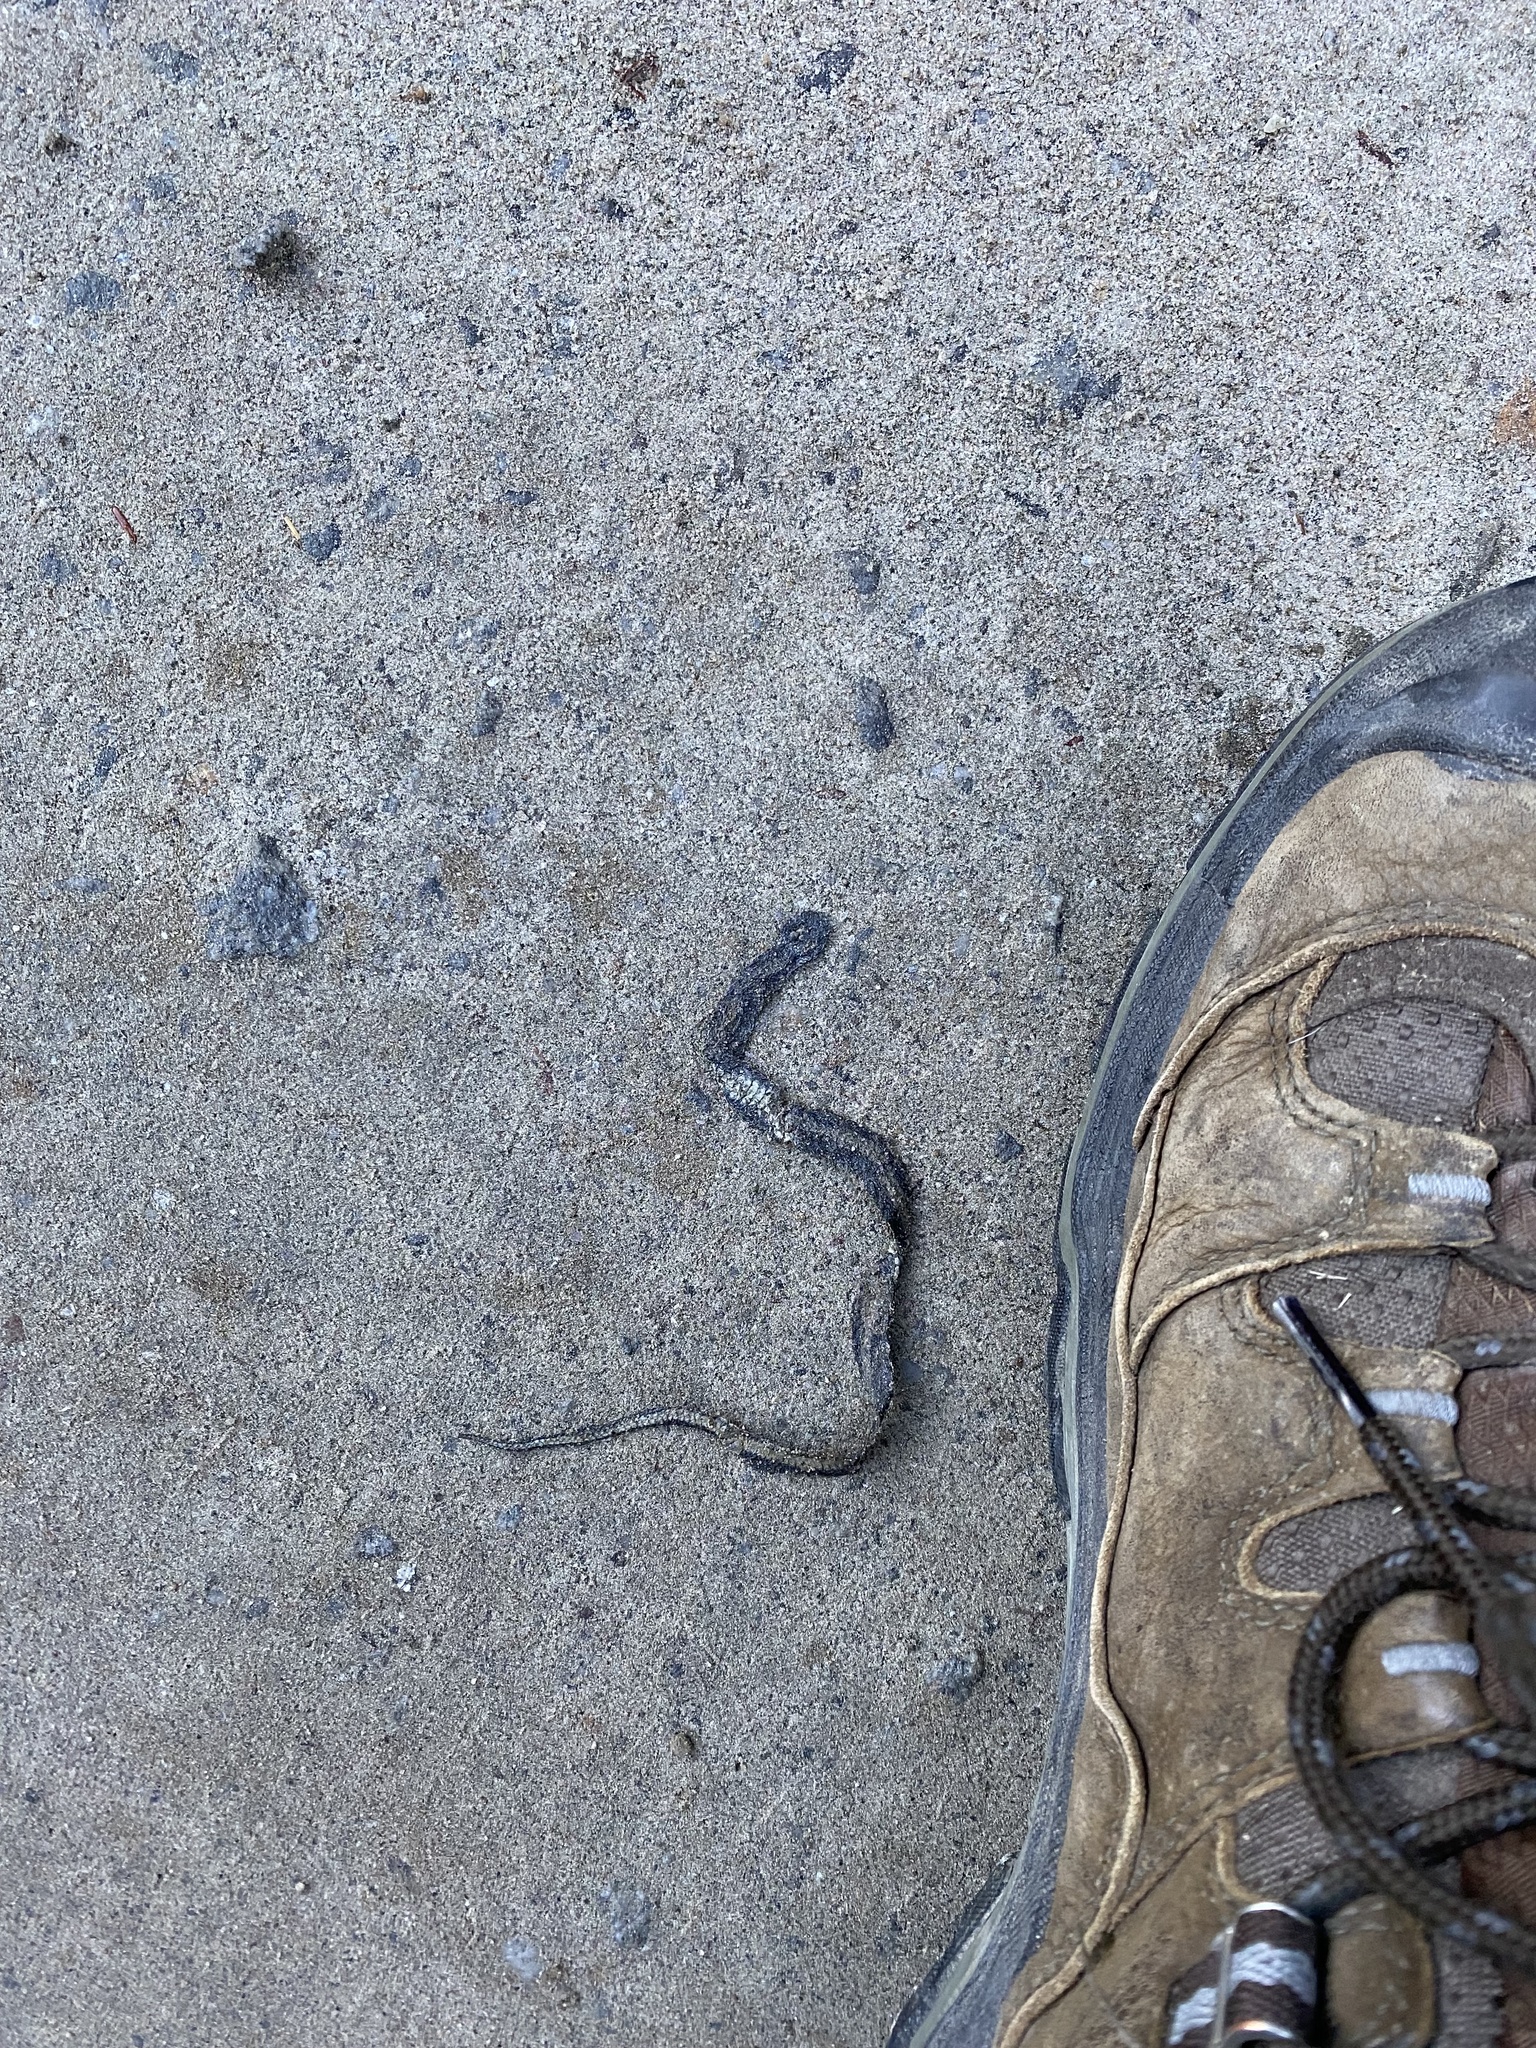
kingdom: Animalia
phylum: Chordata
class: Squamata
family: Colubridae
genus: Storeria
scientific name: Storeria occipitomaculata
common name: Redbelly snake
